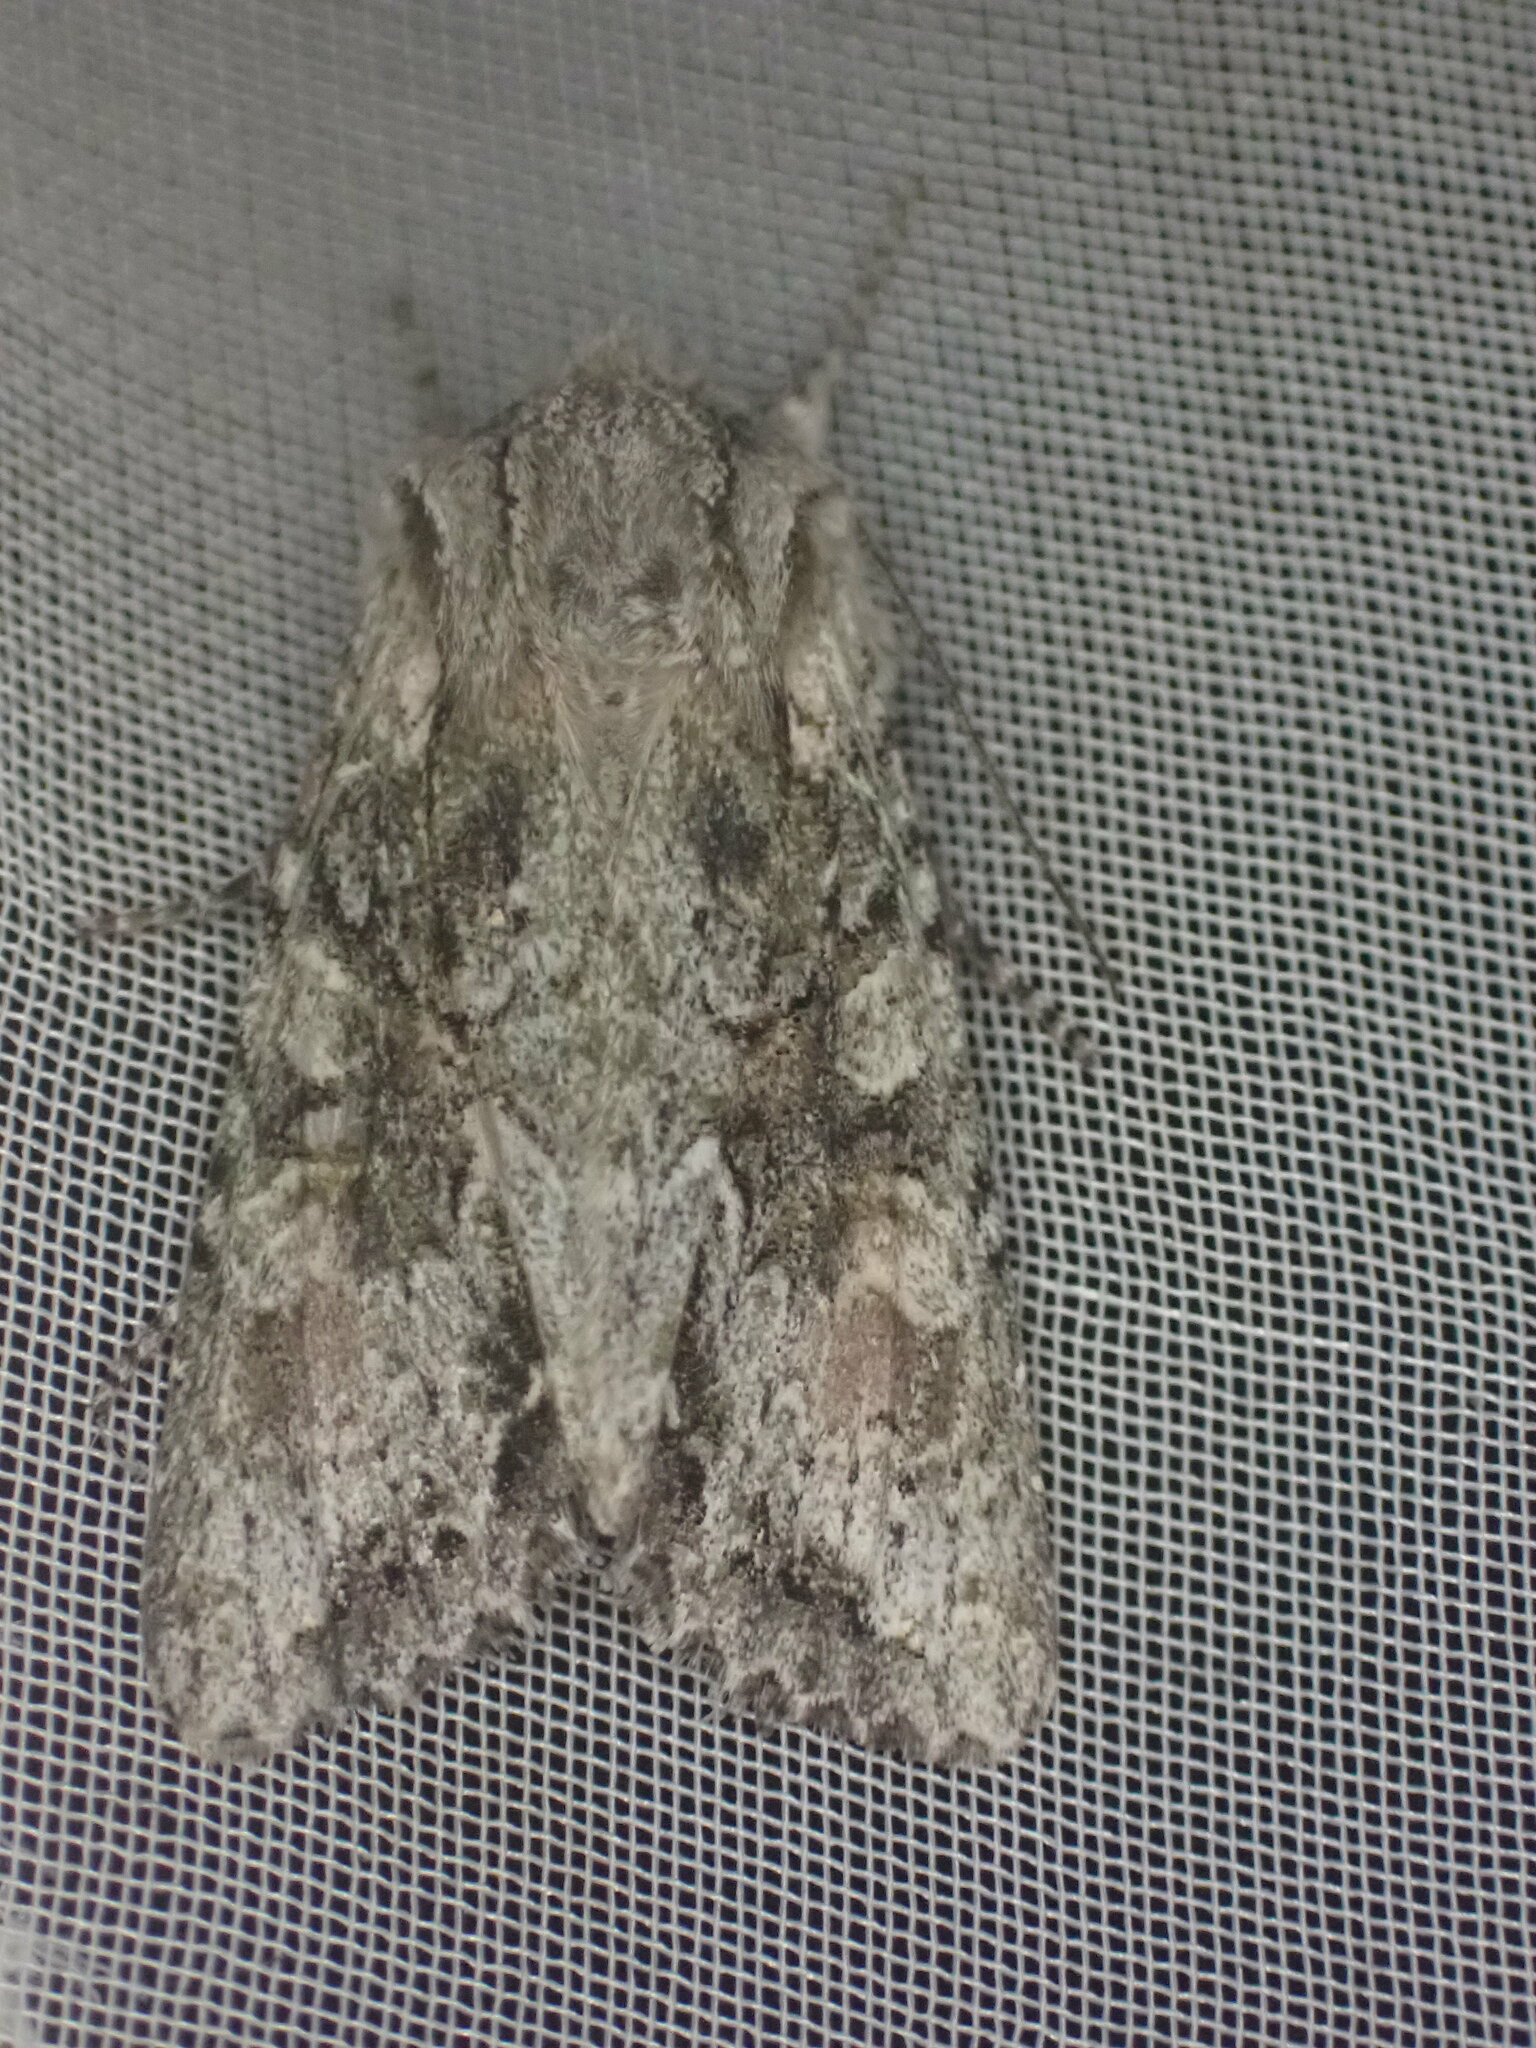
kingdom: Animalia
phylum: Arthropoda
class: Insecta
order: Lepidoptera
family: Noctuidae
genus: Ichneutica
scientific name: Ichneutica mutans
